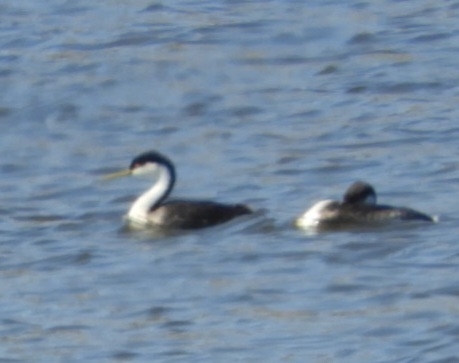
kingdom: Animalia
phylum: Chordata
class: Aves
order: Podicipediformes
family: Podicipedidae
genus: Aechmophorus
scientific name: Aechmophorus occidentalis
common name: Western grebe
